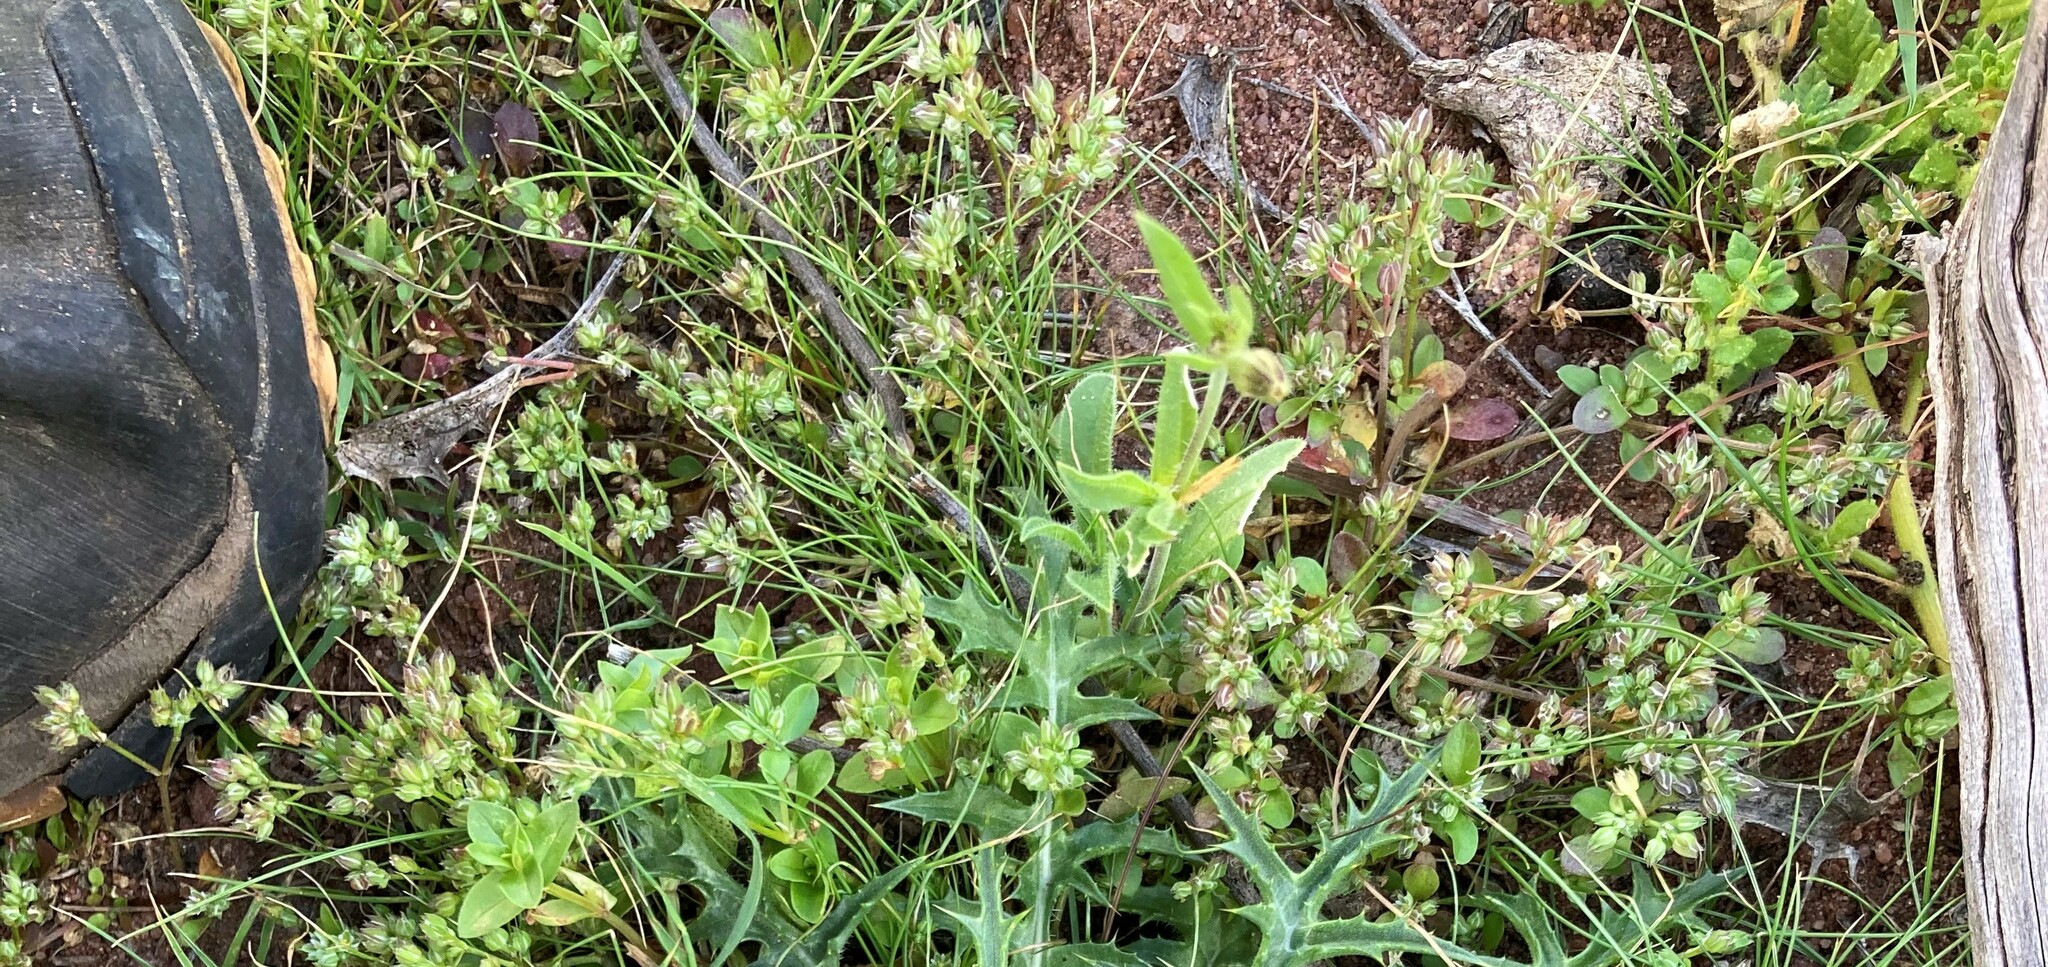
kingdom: Plantae
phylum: Tracheophyta
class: Magnoliopsida
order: Caryophyllales
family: Caryophyllaceae
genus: Polycarpon
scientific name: Polycarpon tetraphyllum
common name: Four-leaved all-seed
